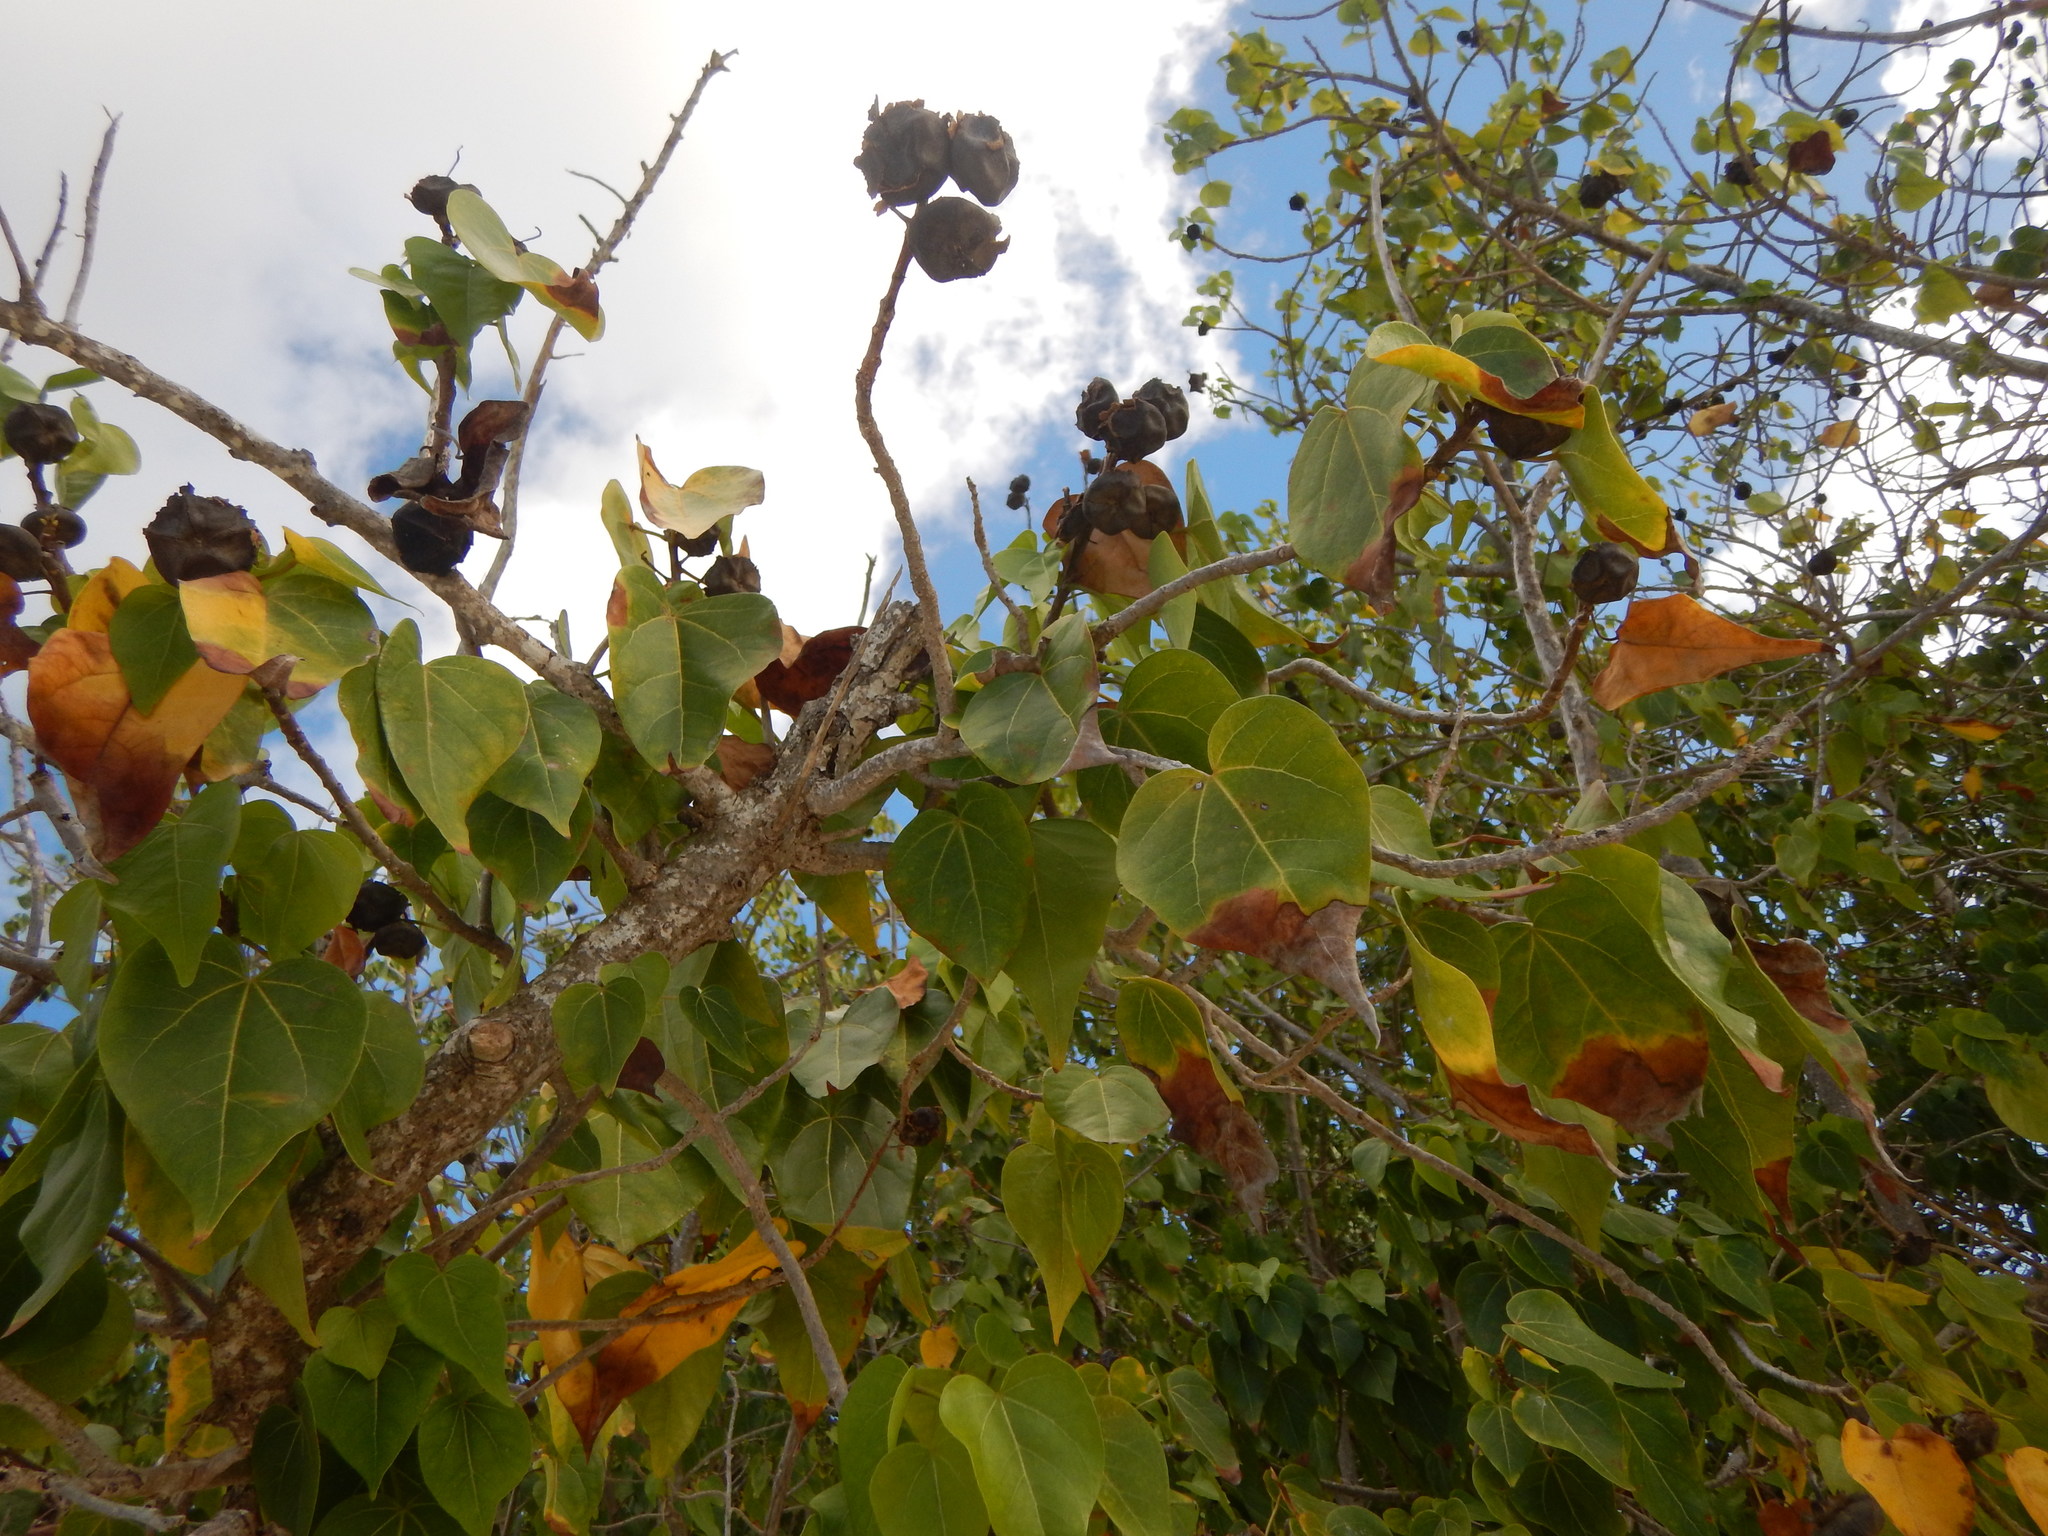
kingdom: Plantae
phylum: Tracheophyta
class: Magnoliopsida
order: Malvales
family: Malvaceae
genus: Thespesia
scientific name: Thespesia populnea
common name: Seaside mahoe
